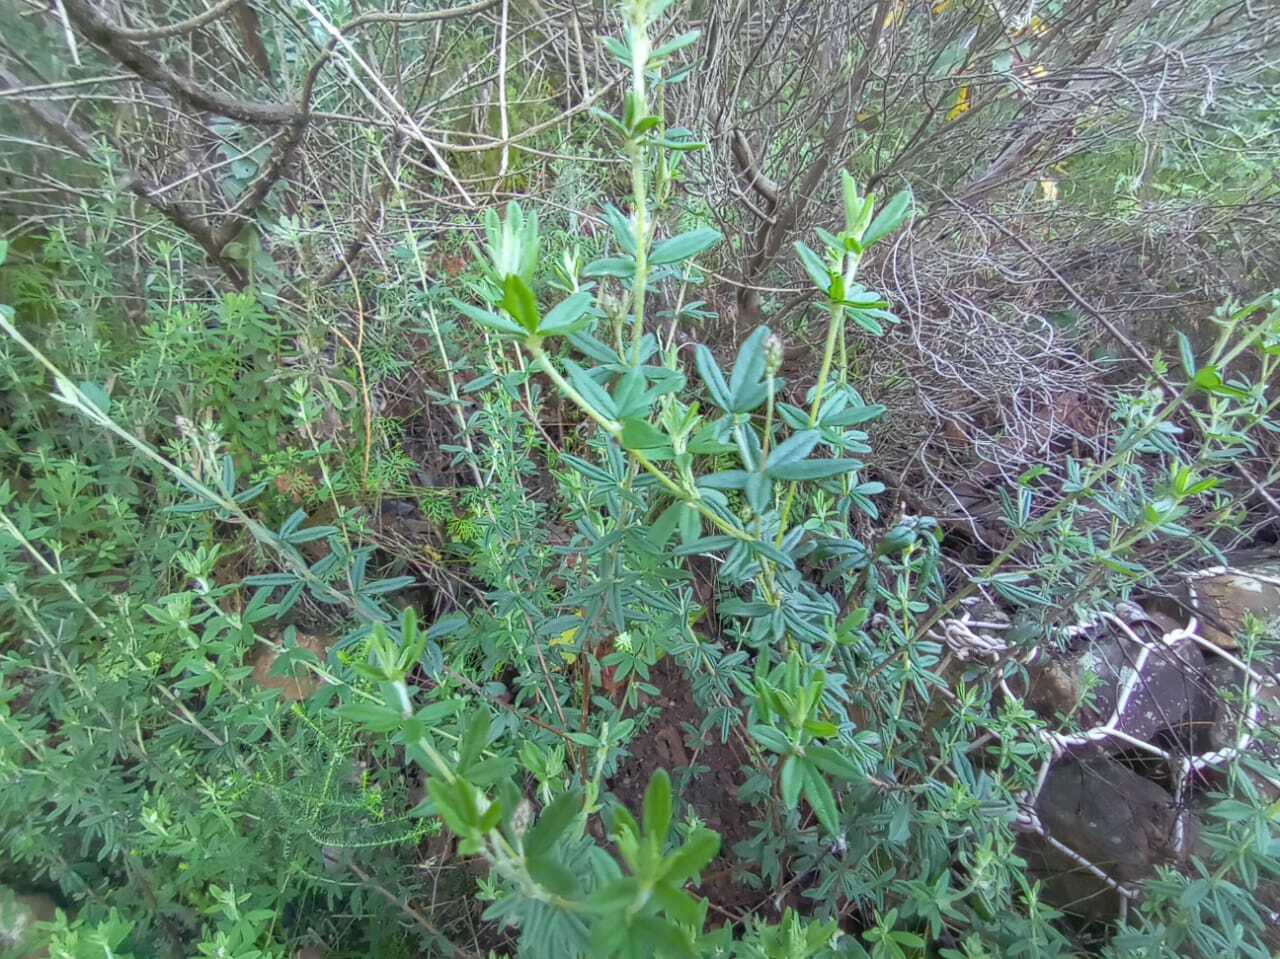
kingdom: Plantae
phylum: Tracheophyta
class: Magnoliopsida
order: Fabales
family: Fabaceae
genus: Indigofera
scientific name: Indigofera filiformis
